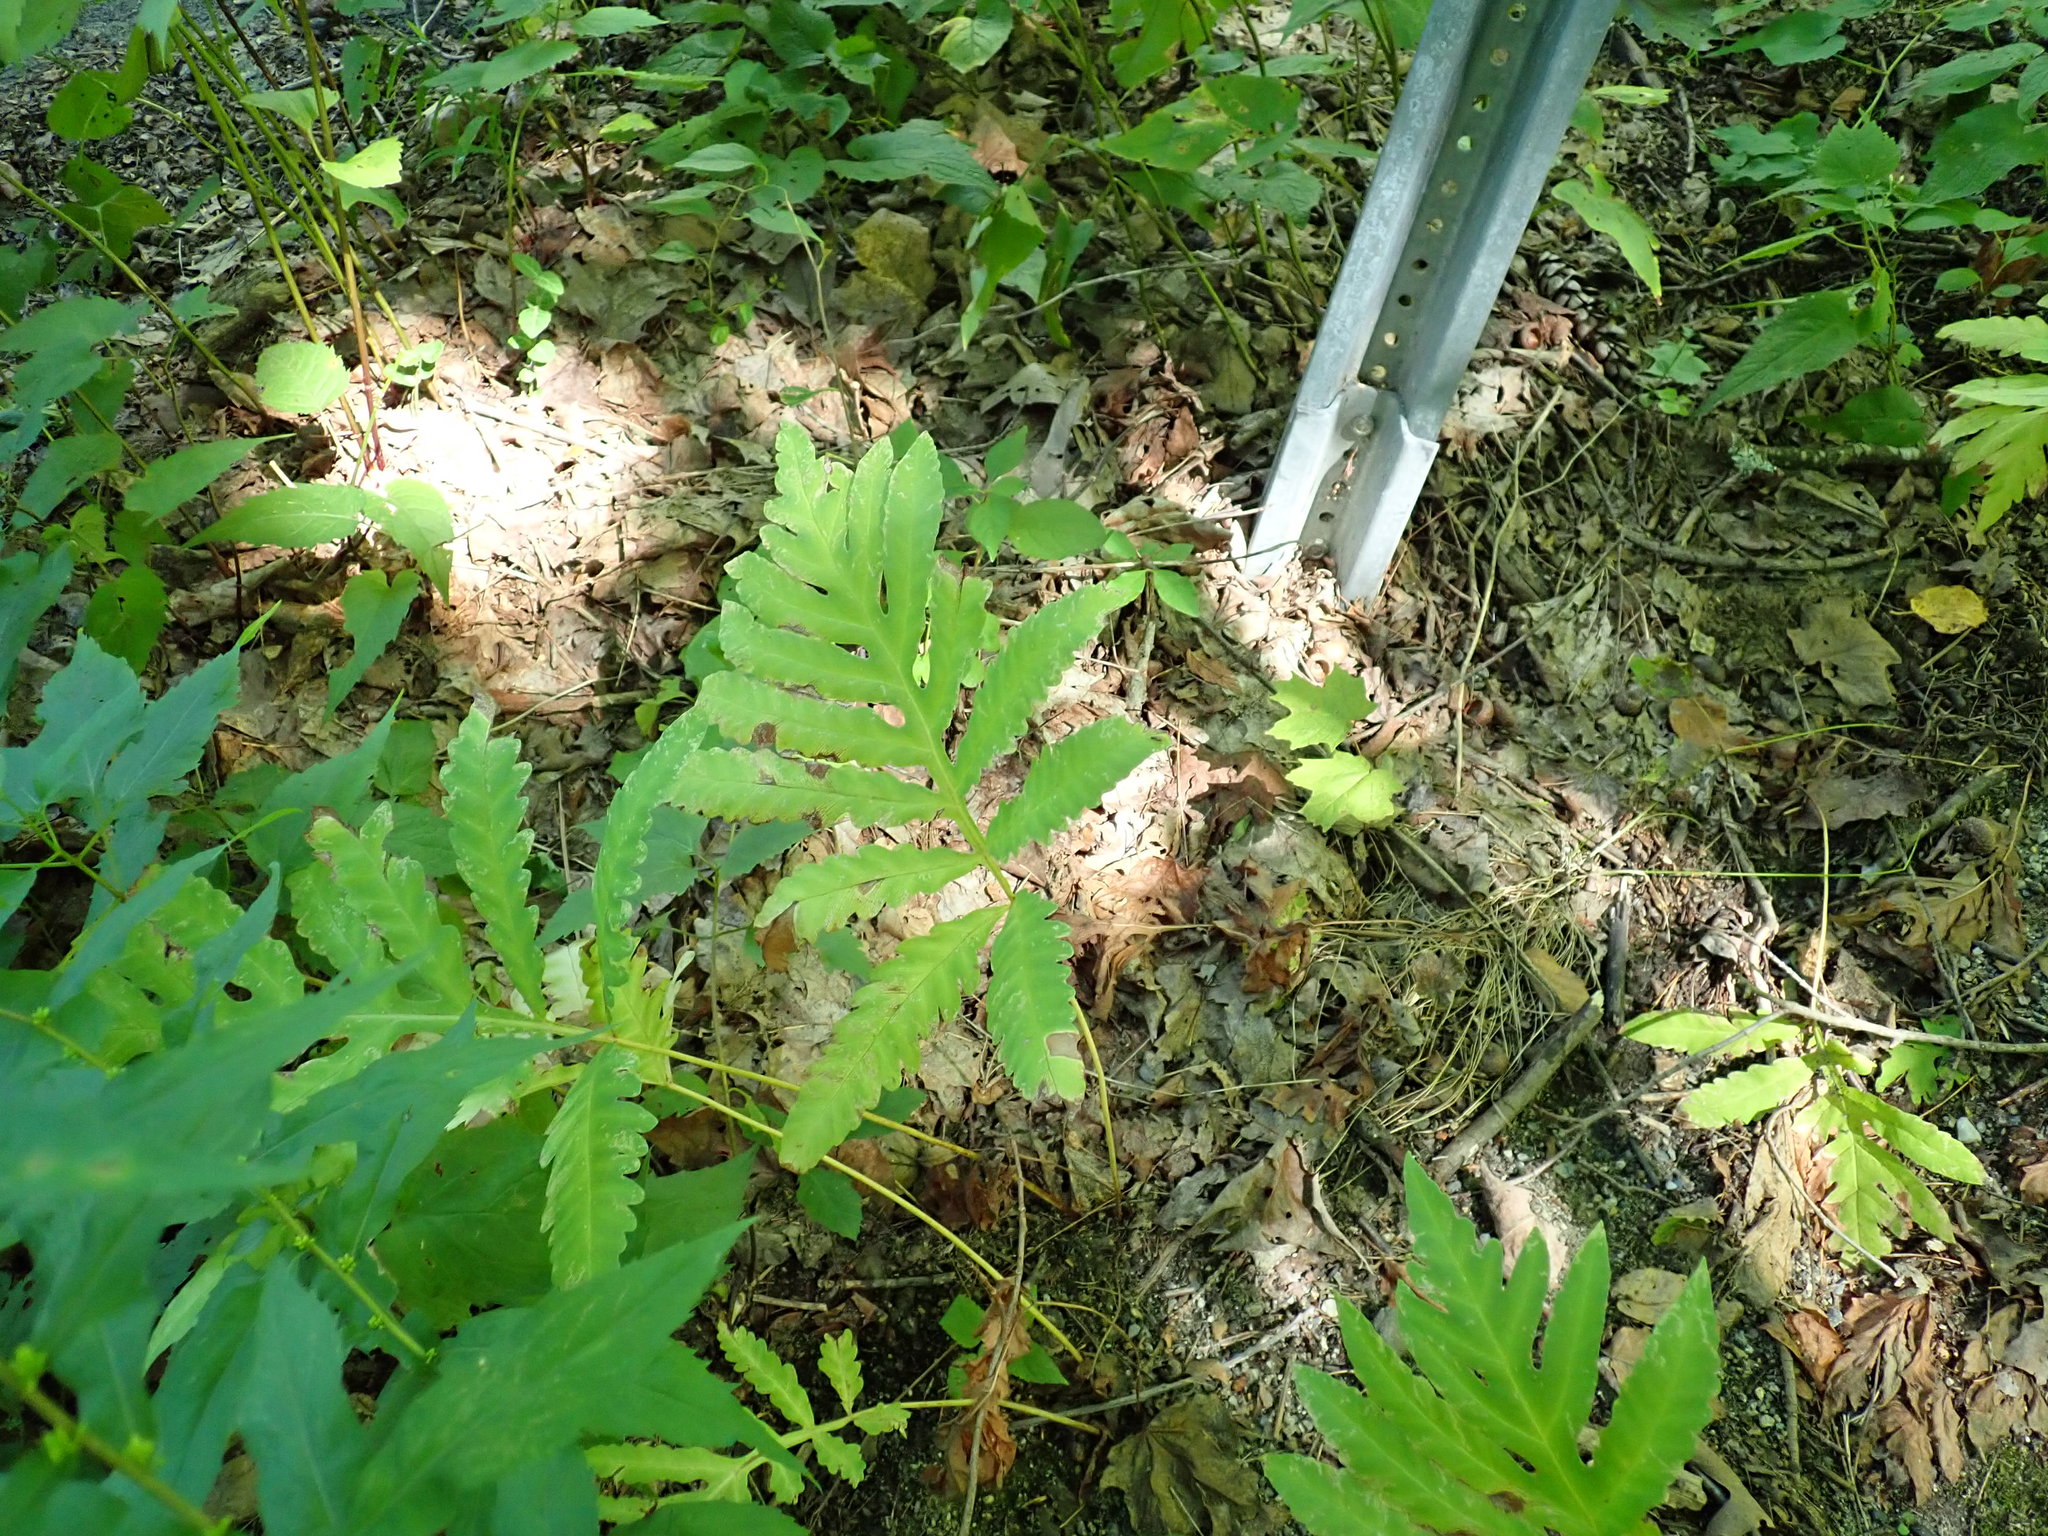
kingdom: Plantae
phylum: Tracheophyta
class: Polypodiopsida
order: Polypodiales
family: Onocleaceae
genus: Onoclea
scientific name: Onoclea sensibilis
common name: Sensitive fern
